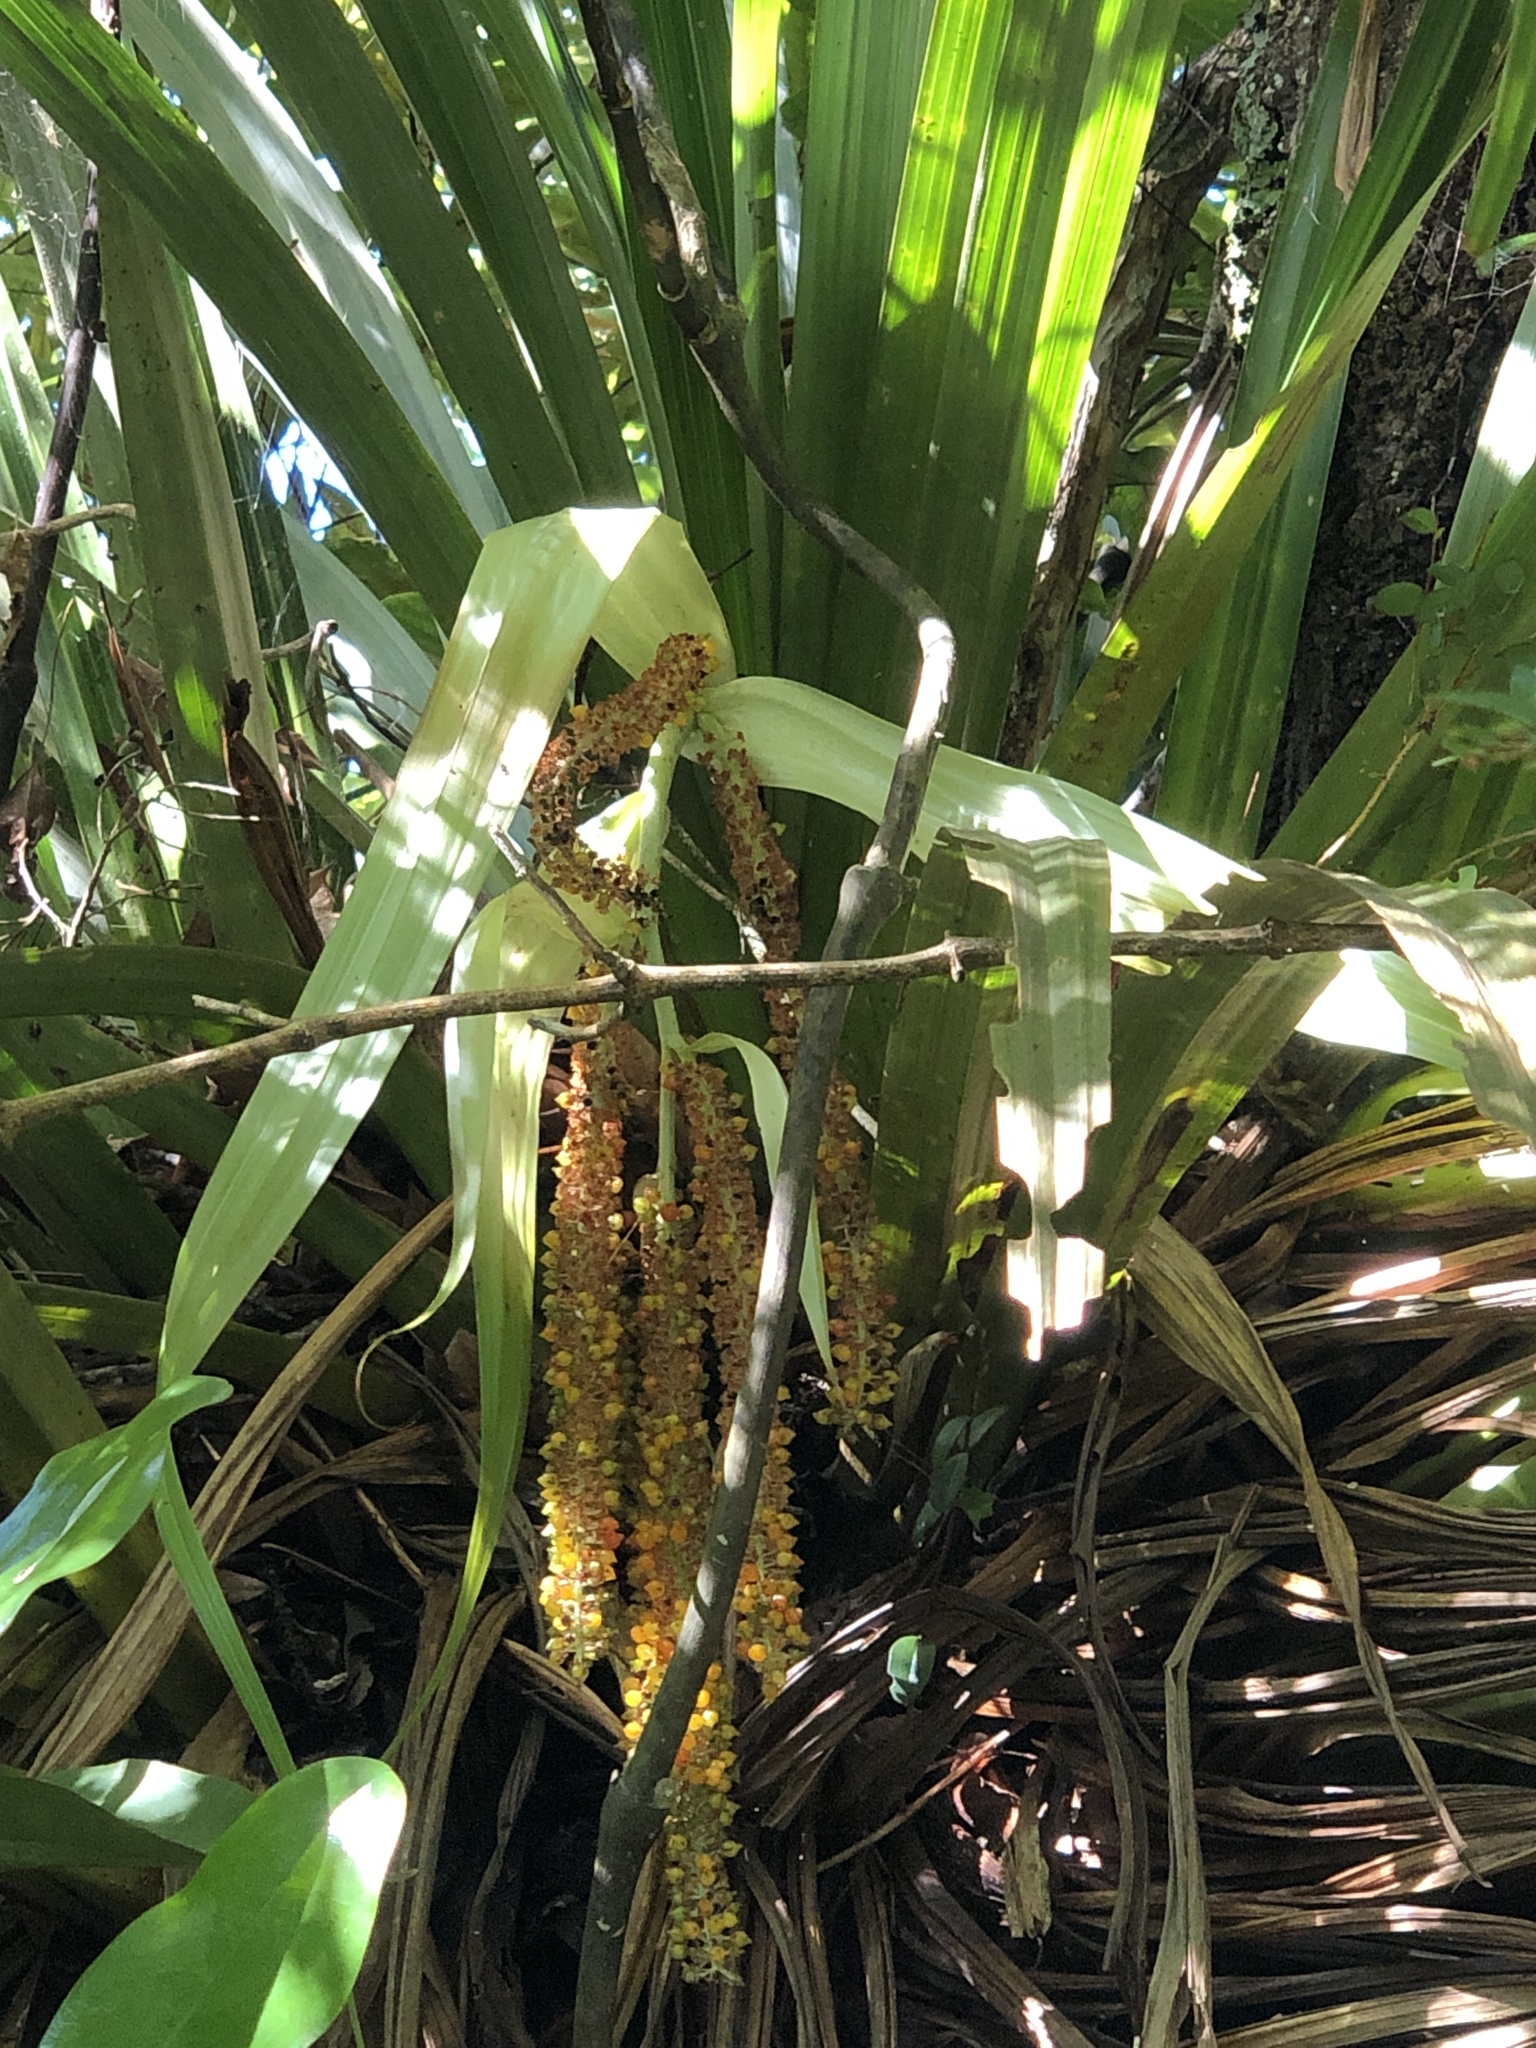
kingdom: Plantae
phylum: Tracheophyta
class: Liliopsida
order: Asparagales
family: Asteliaceae
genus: Astelia
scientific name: Astelia hastata
